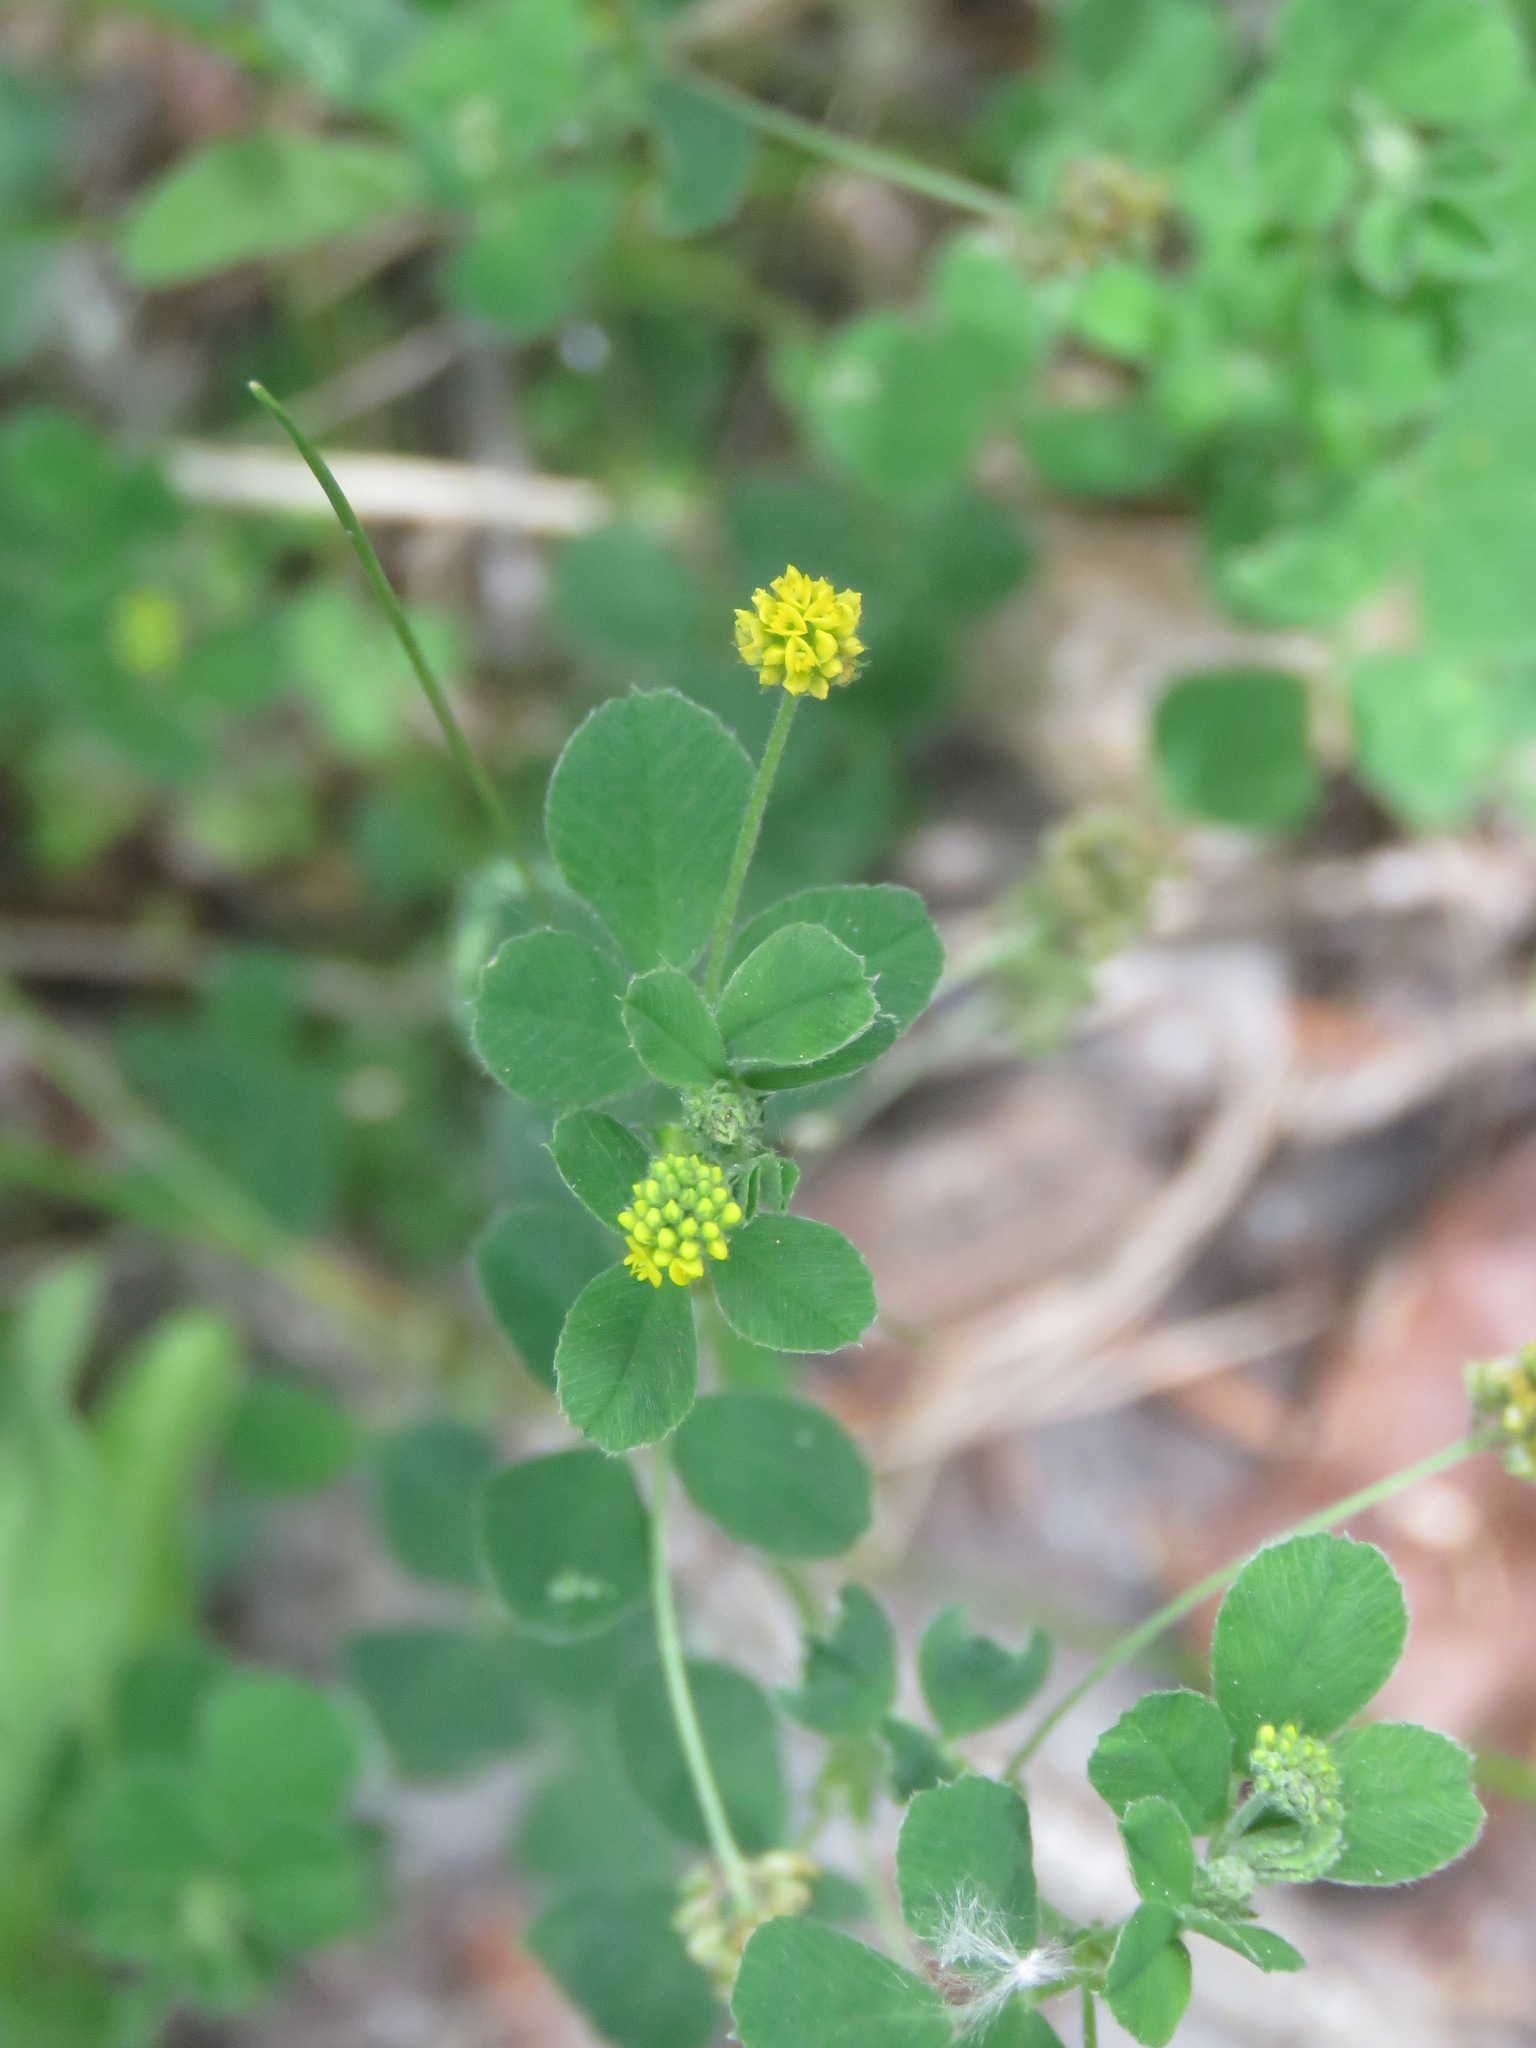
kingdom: Plantae
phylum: Tracheophyta
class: Magnoliopsida
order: Fabales
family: Fabaceae
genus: Medicago
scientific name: Medicago lupulina
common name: Black medick
